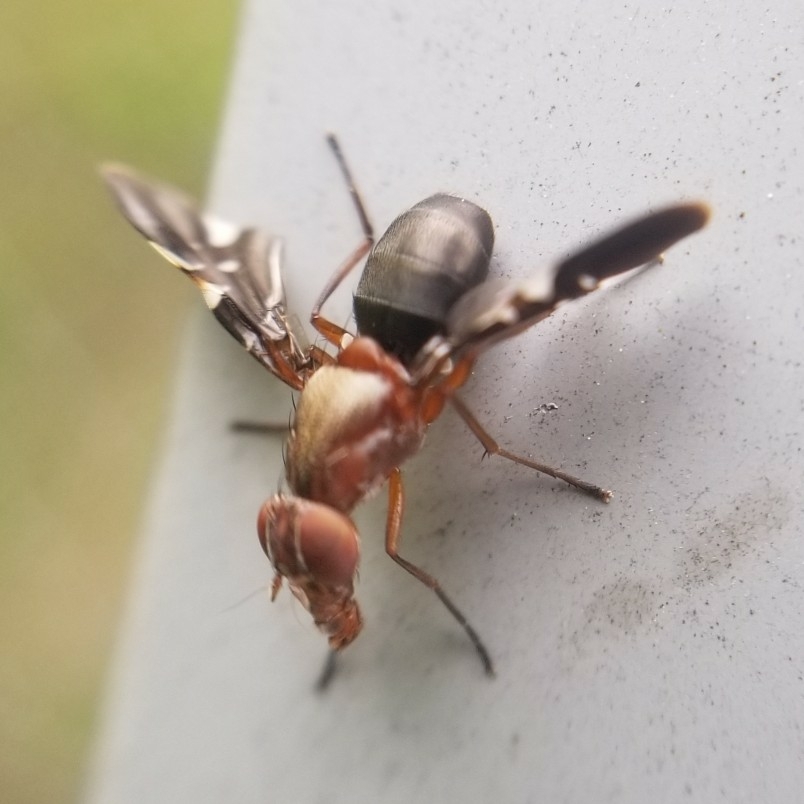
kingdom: Animalia
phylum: Arthropoda
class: Insecta
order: Diptera
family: Ulidiidae
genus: Delphinia
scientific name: Delphinia picta
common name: Common picture-winged fly
